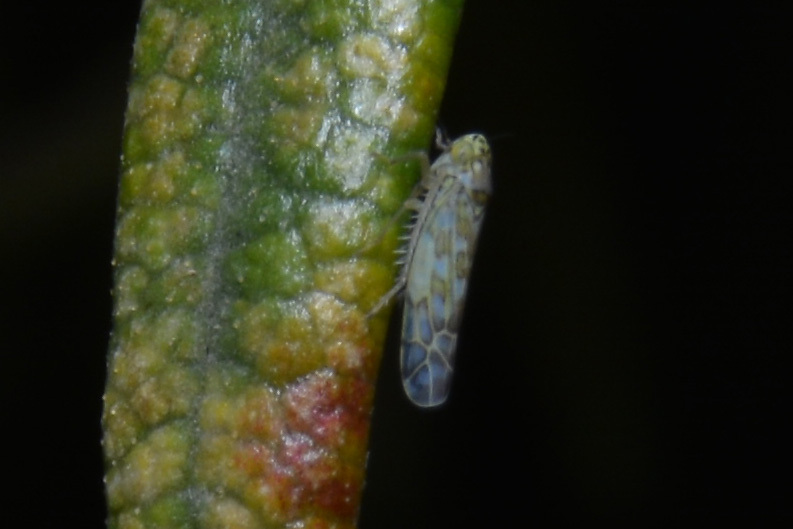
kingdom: Animalia
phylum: Arthropoda
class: Insecta
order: Hemiptera
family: Cicadellidae
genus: Eupteryx
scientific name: Eupteryx decemnotata
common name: Ligurian leafhopper
